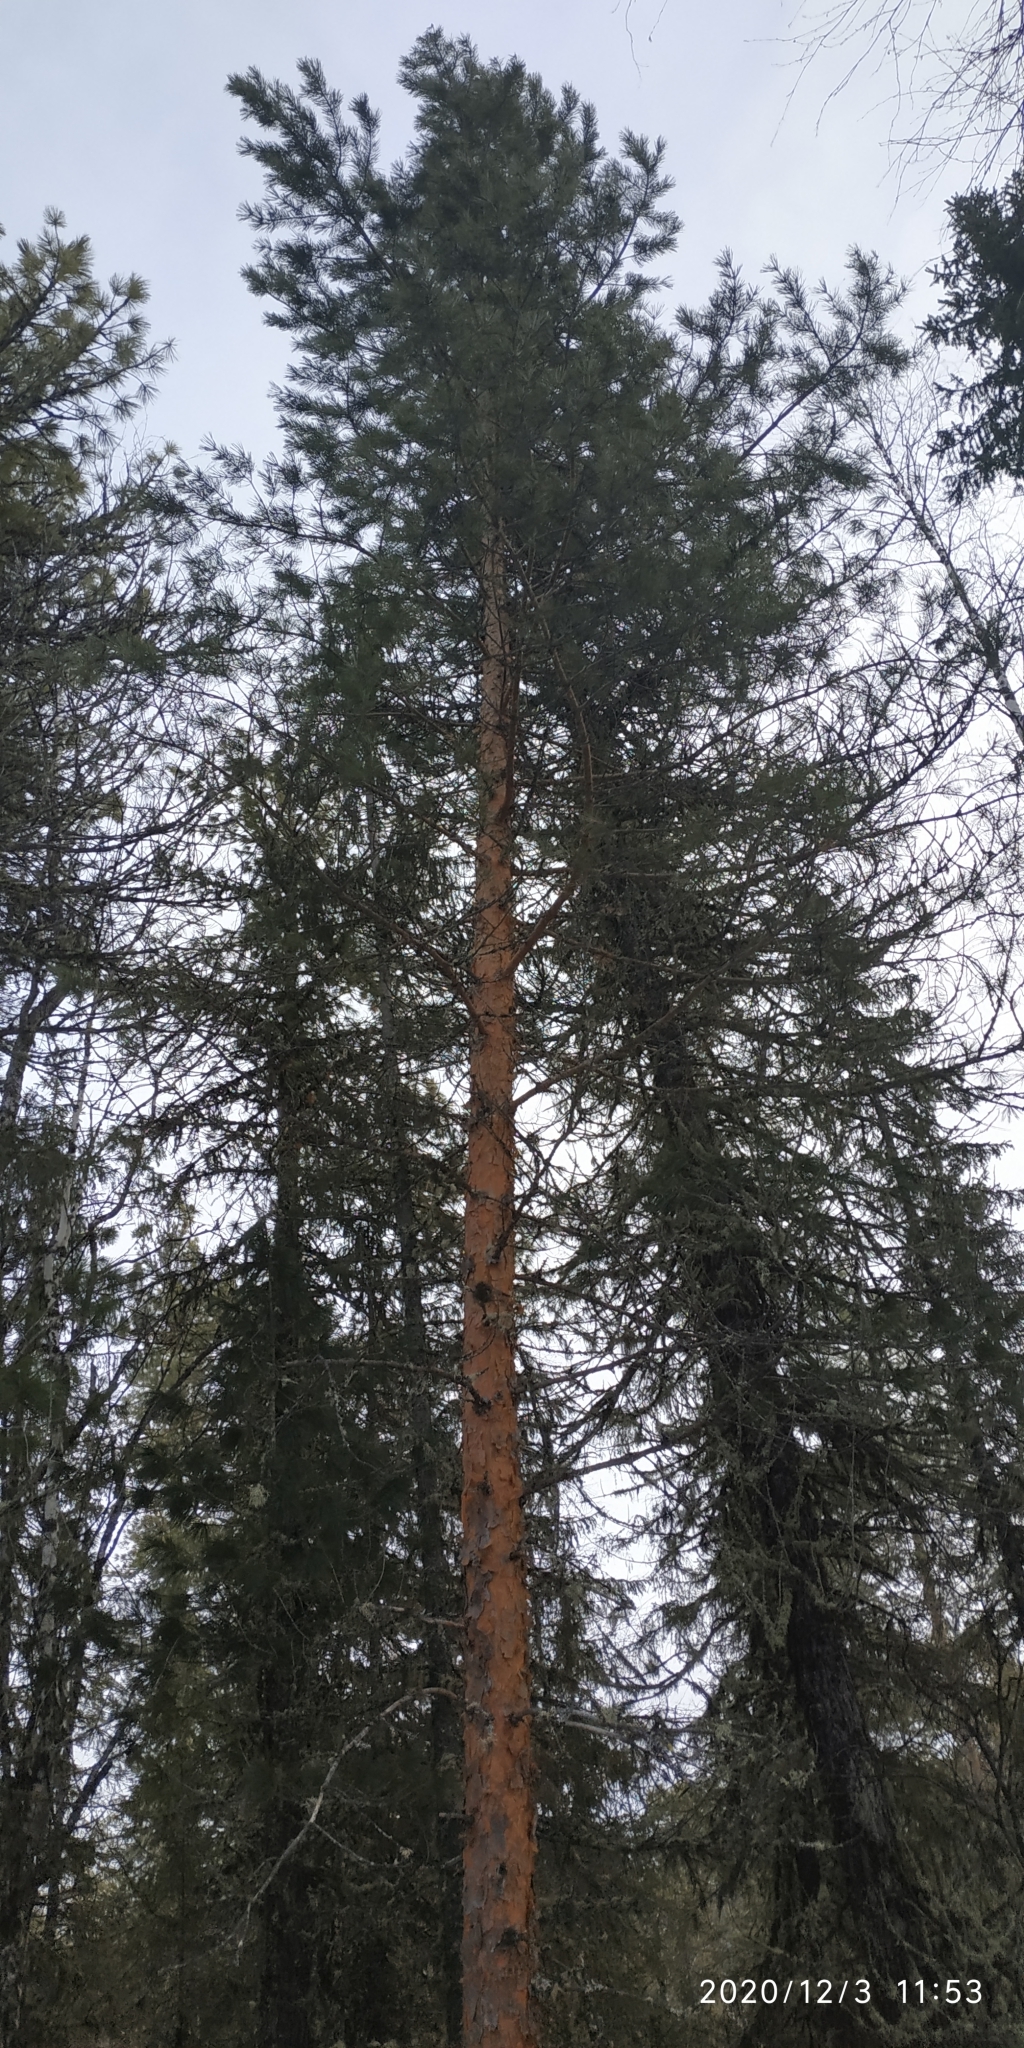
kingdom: Plantae
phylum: Tracheophyta
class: Pinopsida
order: Pinales
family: Pinaceae
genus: Pinus
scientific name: Pinus sylvestris
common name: Scots pine
